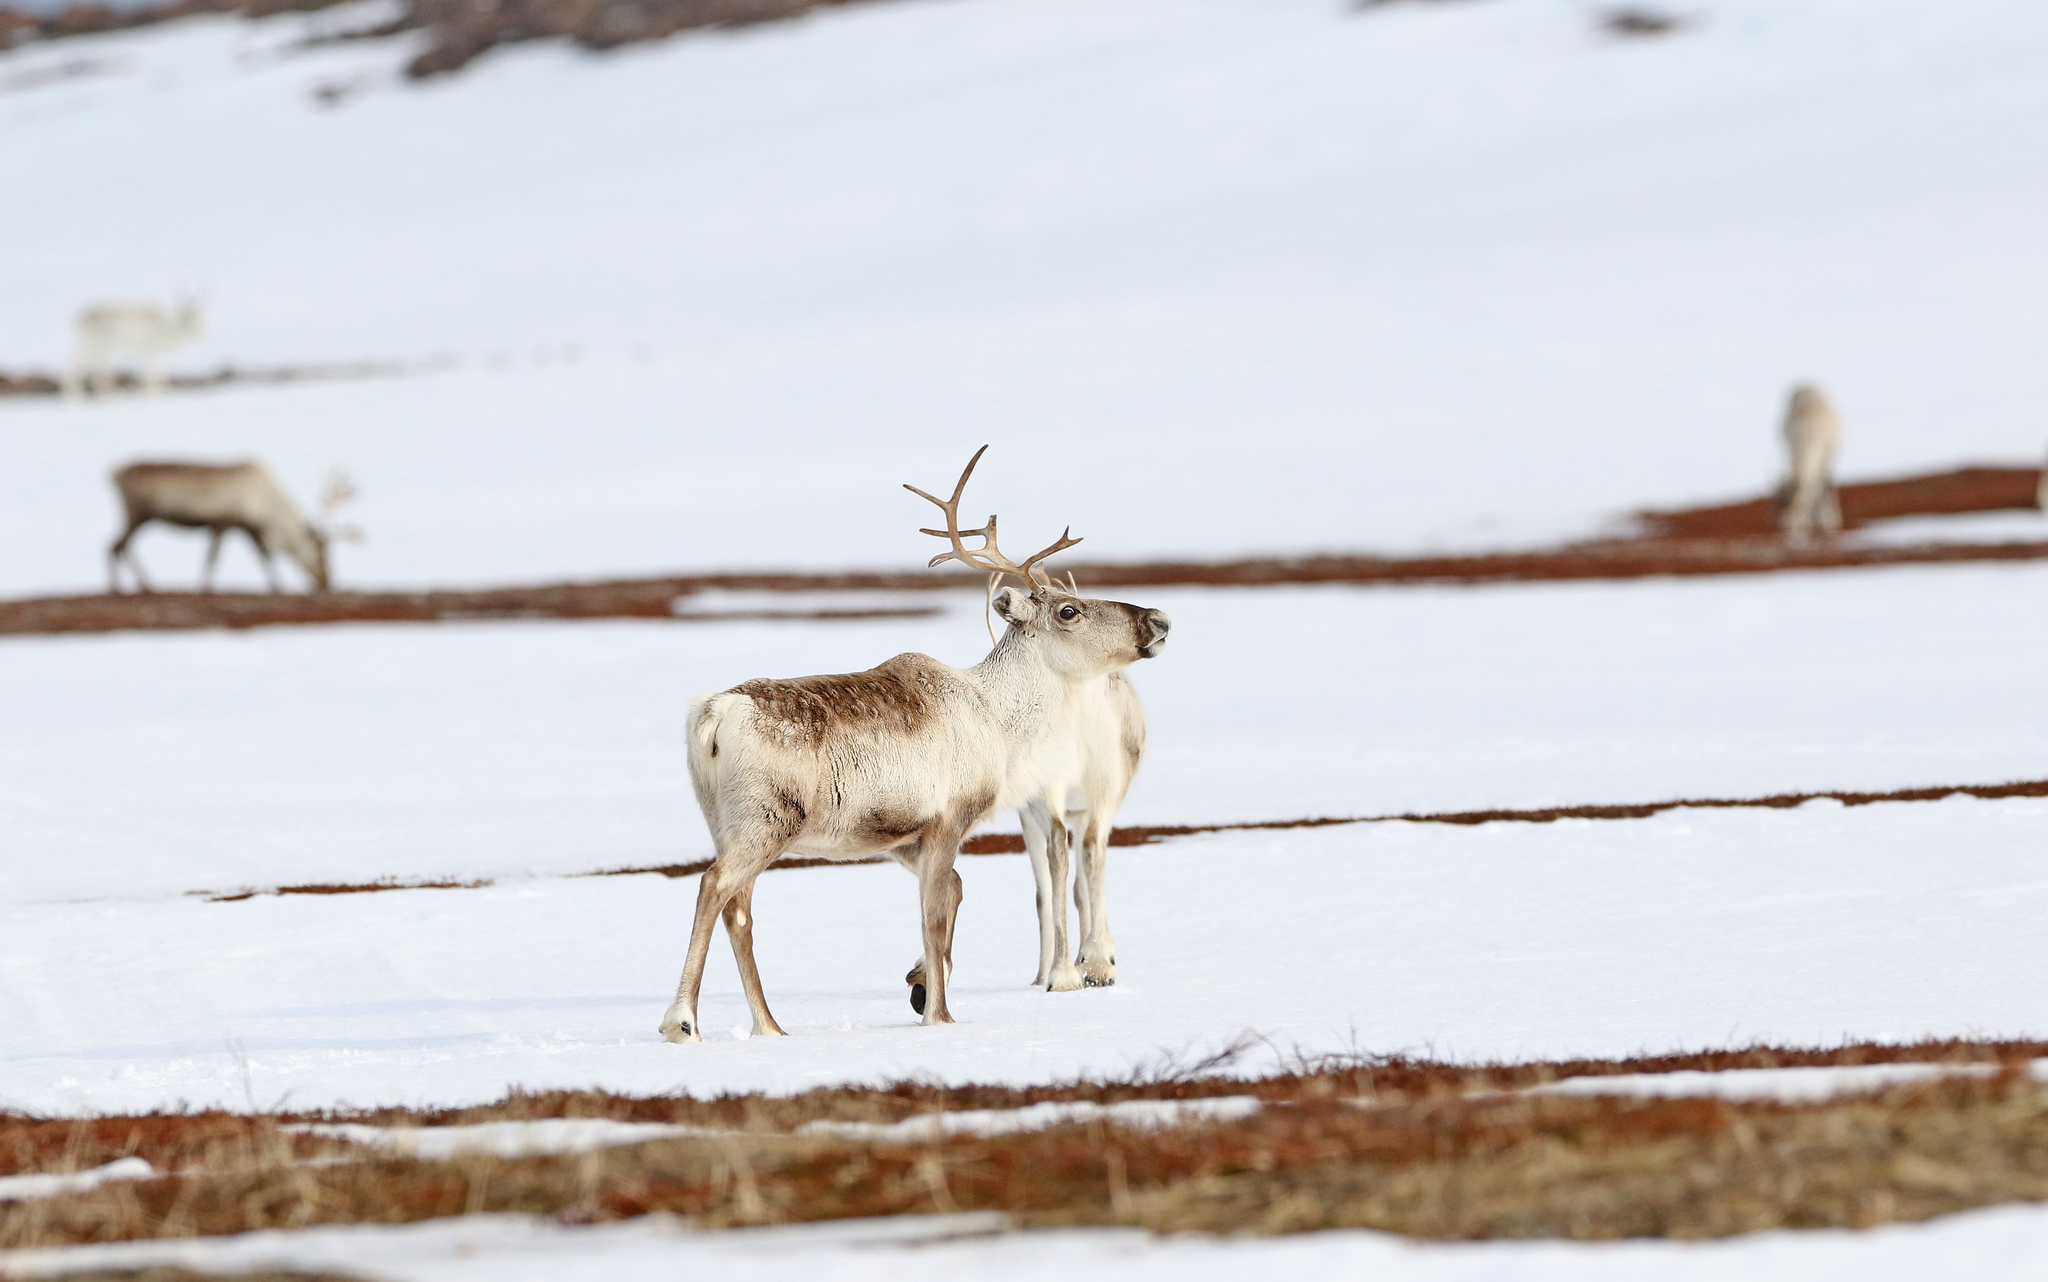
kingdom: Animalia
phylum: Chordata
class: Mammalia
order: Artiodactyla
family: Cervidae
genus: Rangifer
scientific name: Rangifer tarandus
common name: Reindeer
